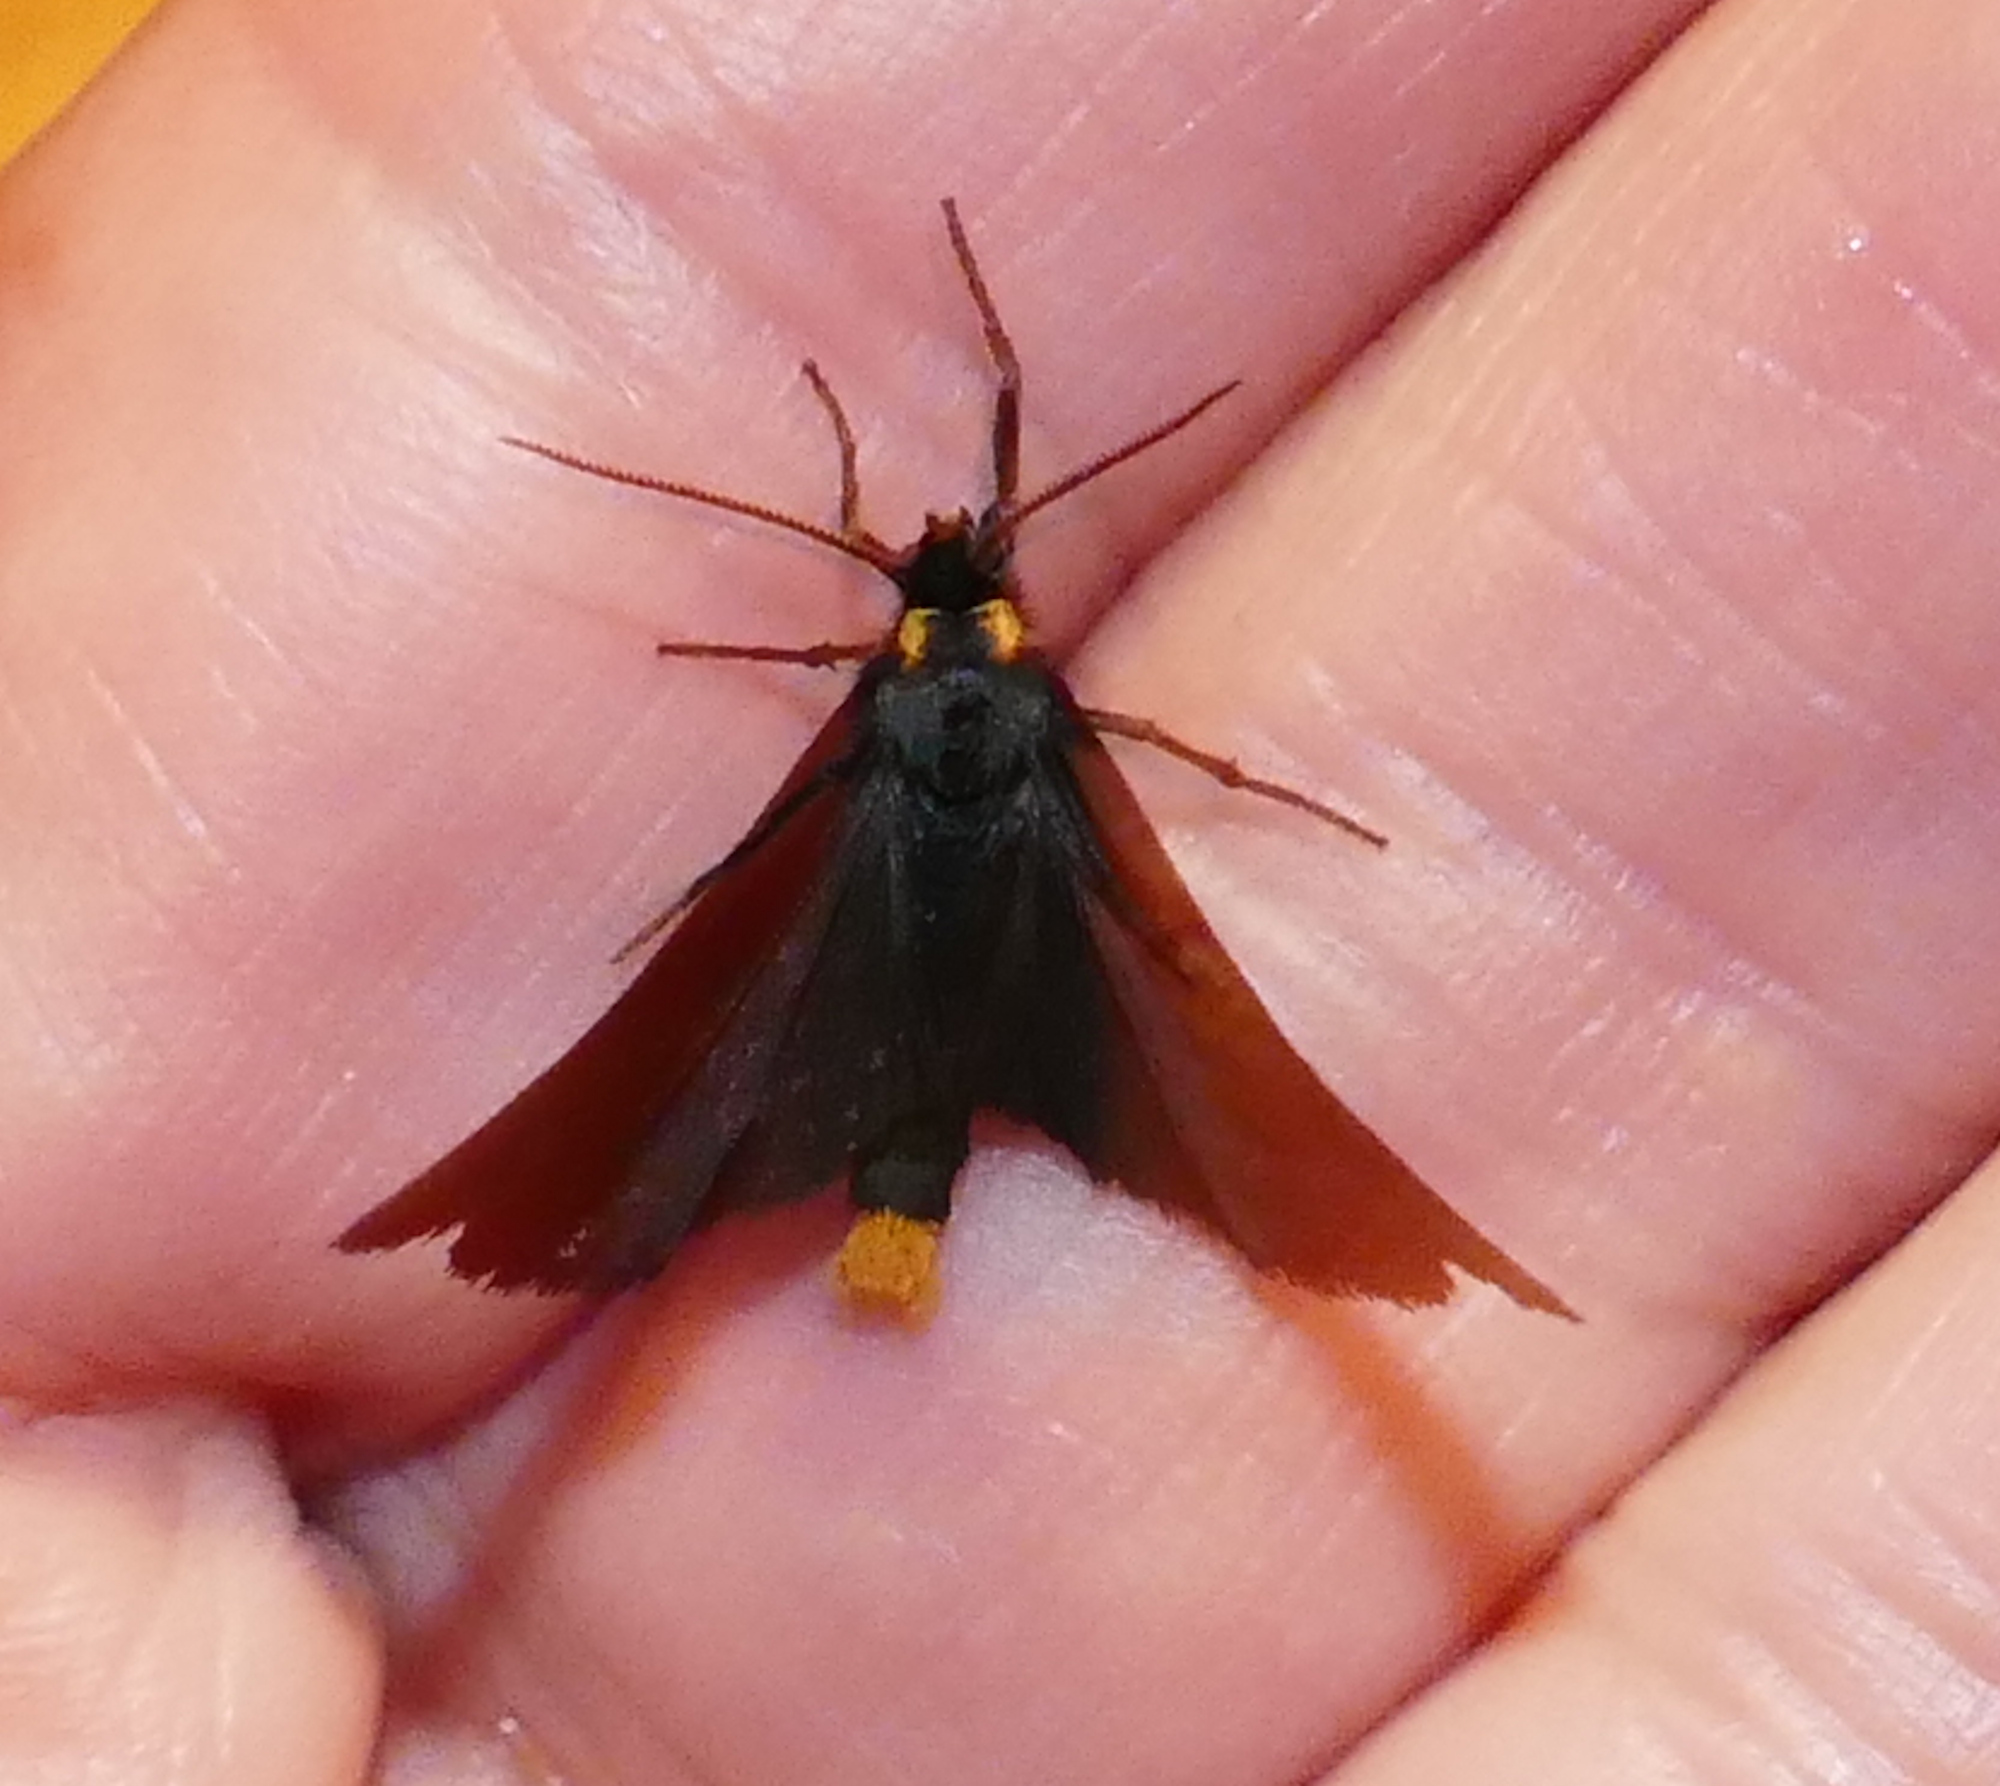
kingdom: Animalia
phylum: Arthropoda
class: Insecta
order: Lepidoptera
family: Erebidae
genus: Inopsis
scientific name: Inopsis funerea
